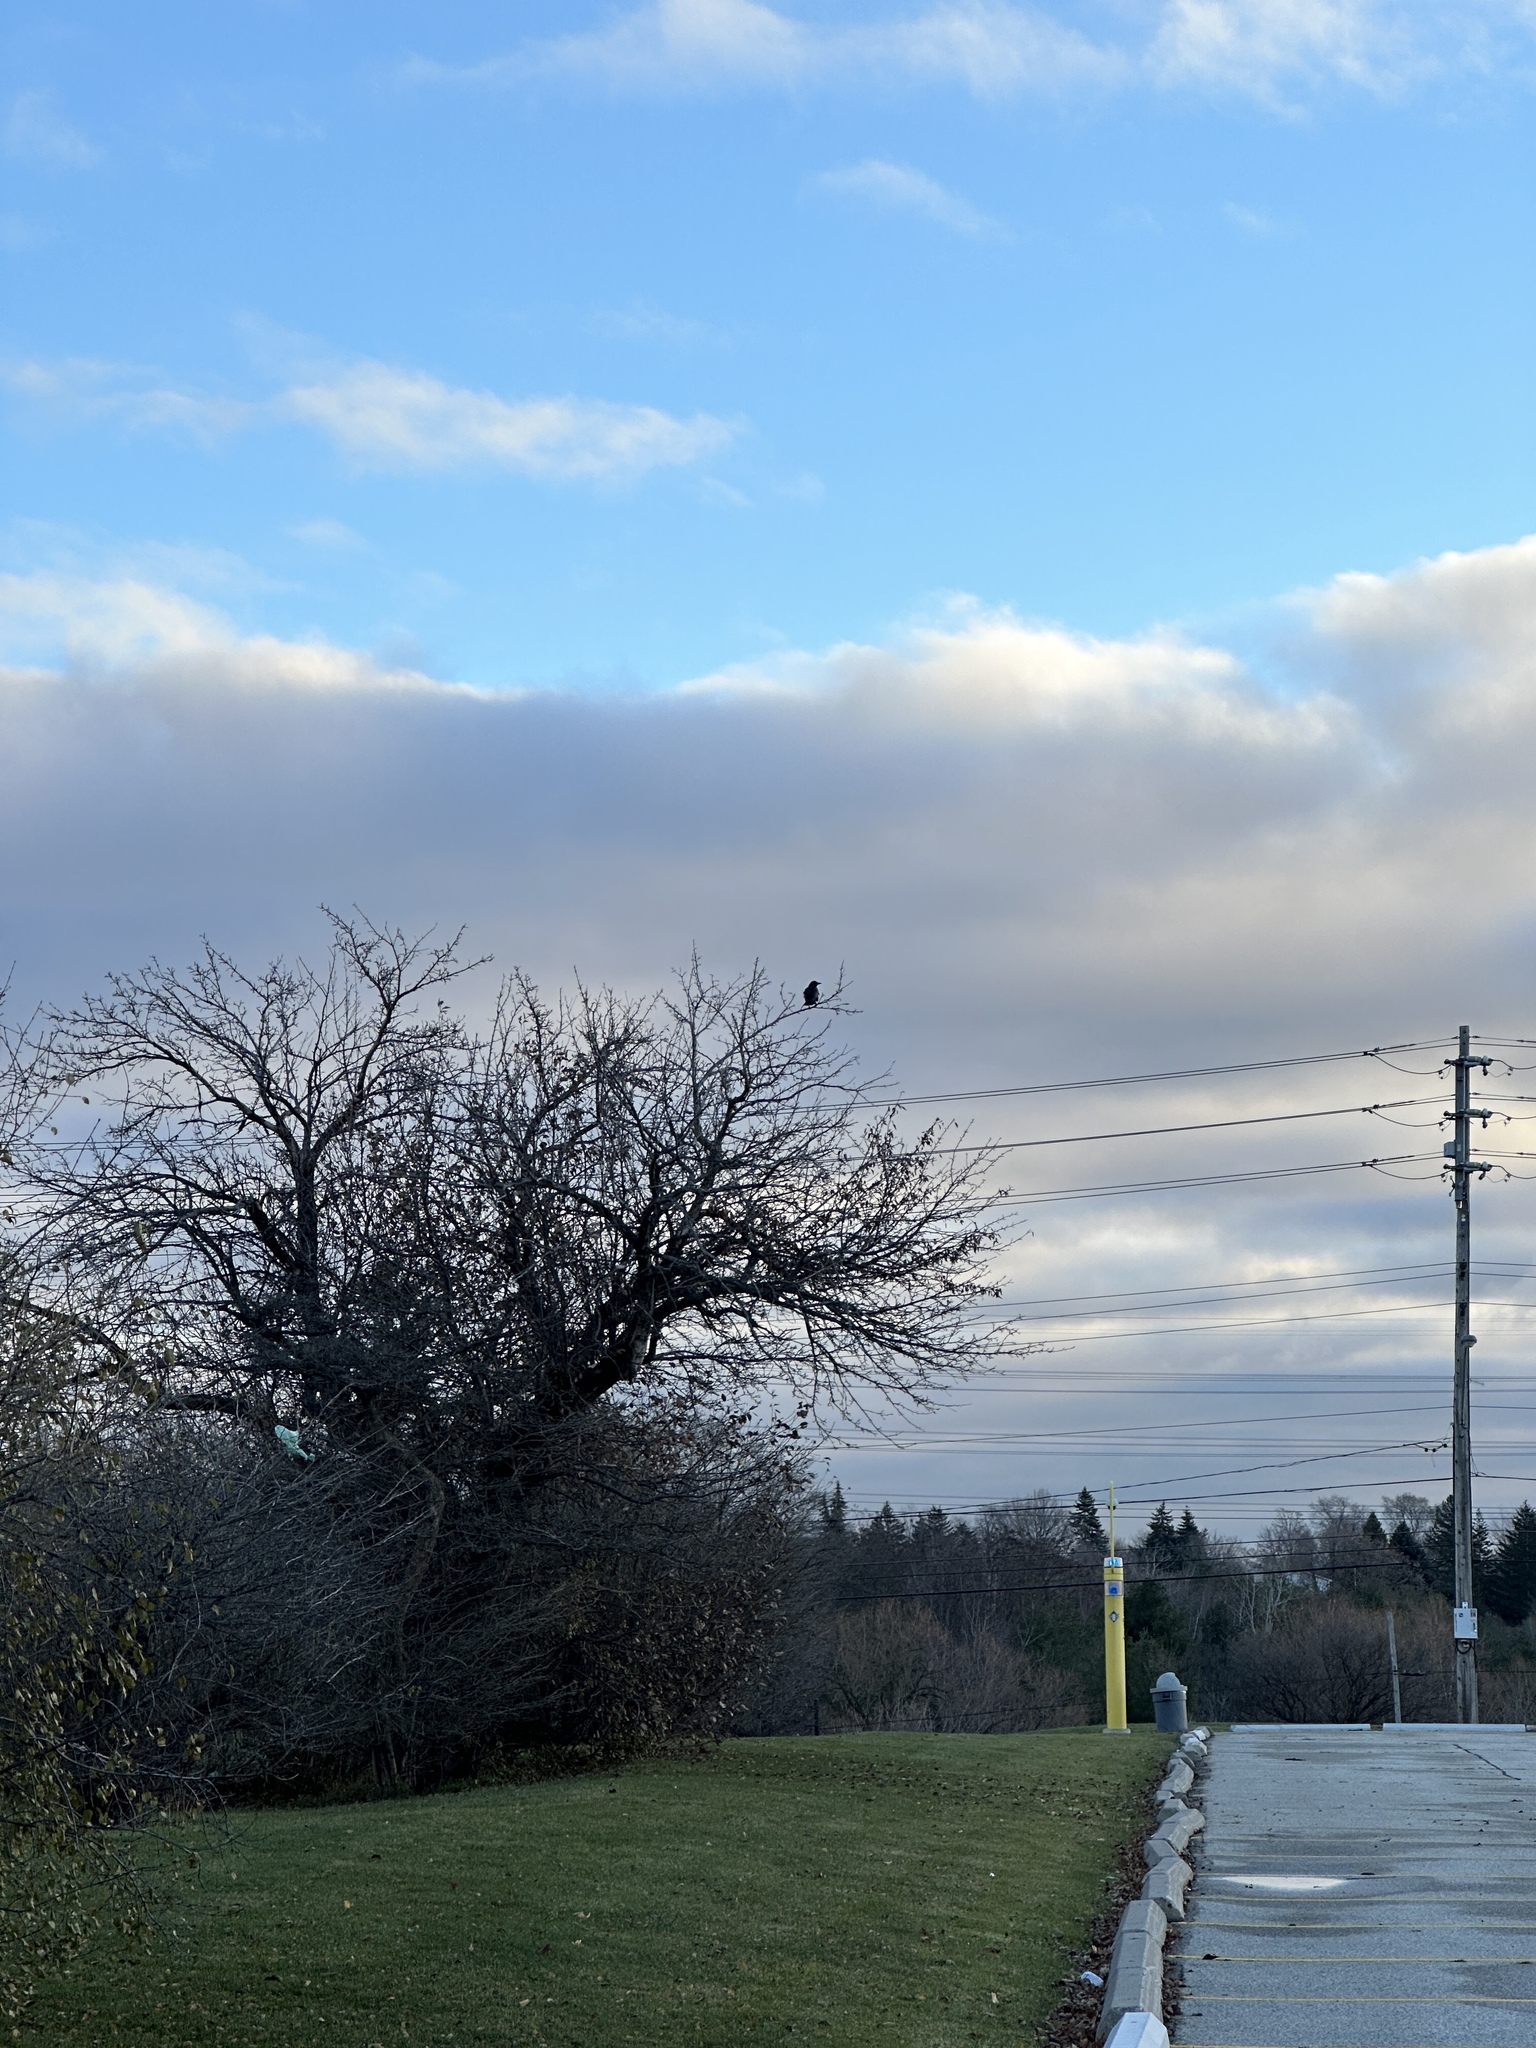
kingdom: Animalia
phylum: Chordata
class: Aves
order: Passeriformes
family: Corvidae
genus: Corvus
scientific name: Corvus brachyrhynchos
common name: American crow
